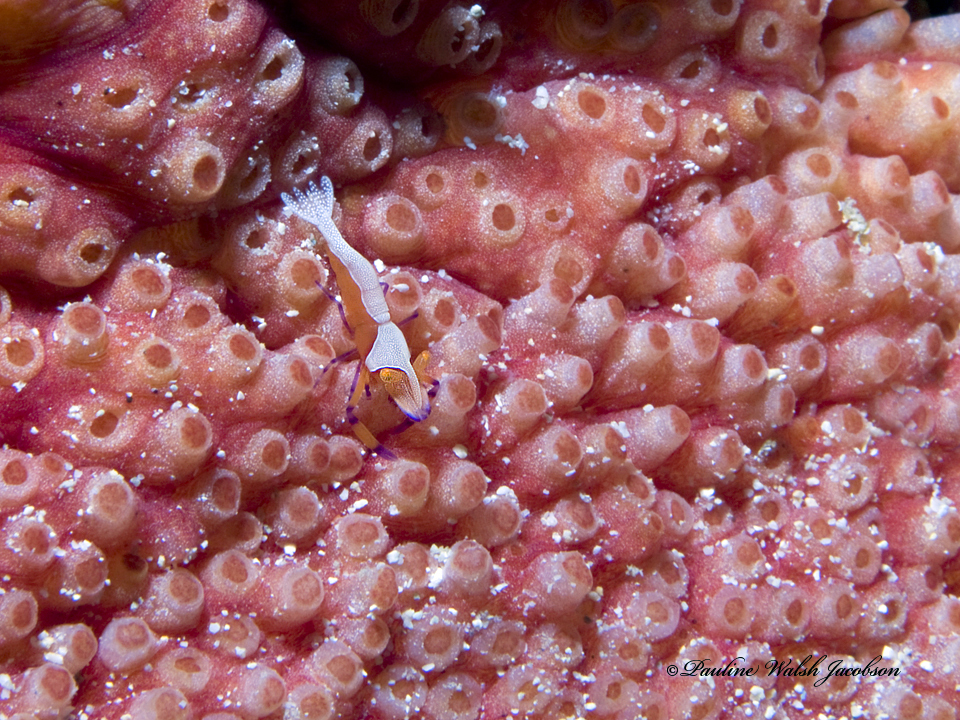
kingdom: Animalia
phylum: Arthropoda
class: Malacostraca
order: Decapoda
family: Palaemonidae
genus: Periclimenes
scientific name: Periclimenes rex
